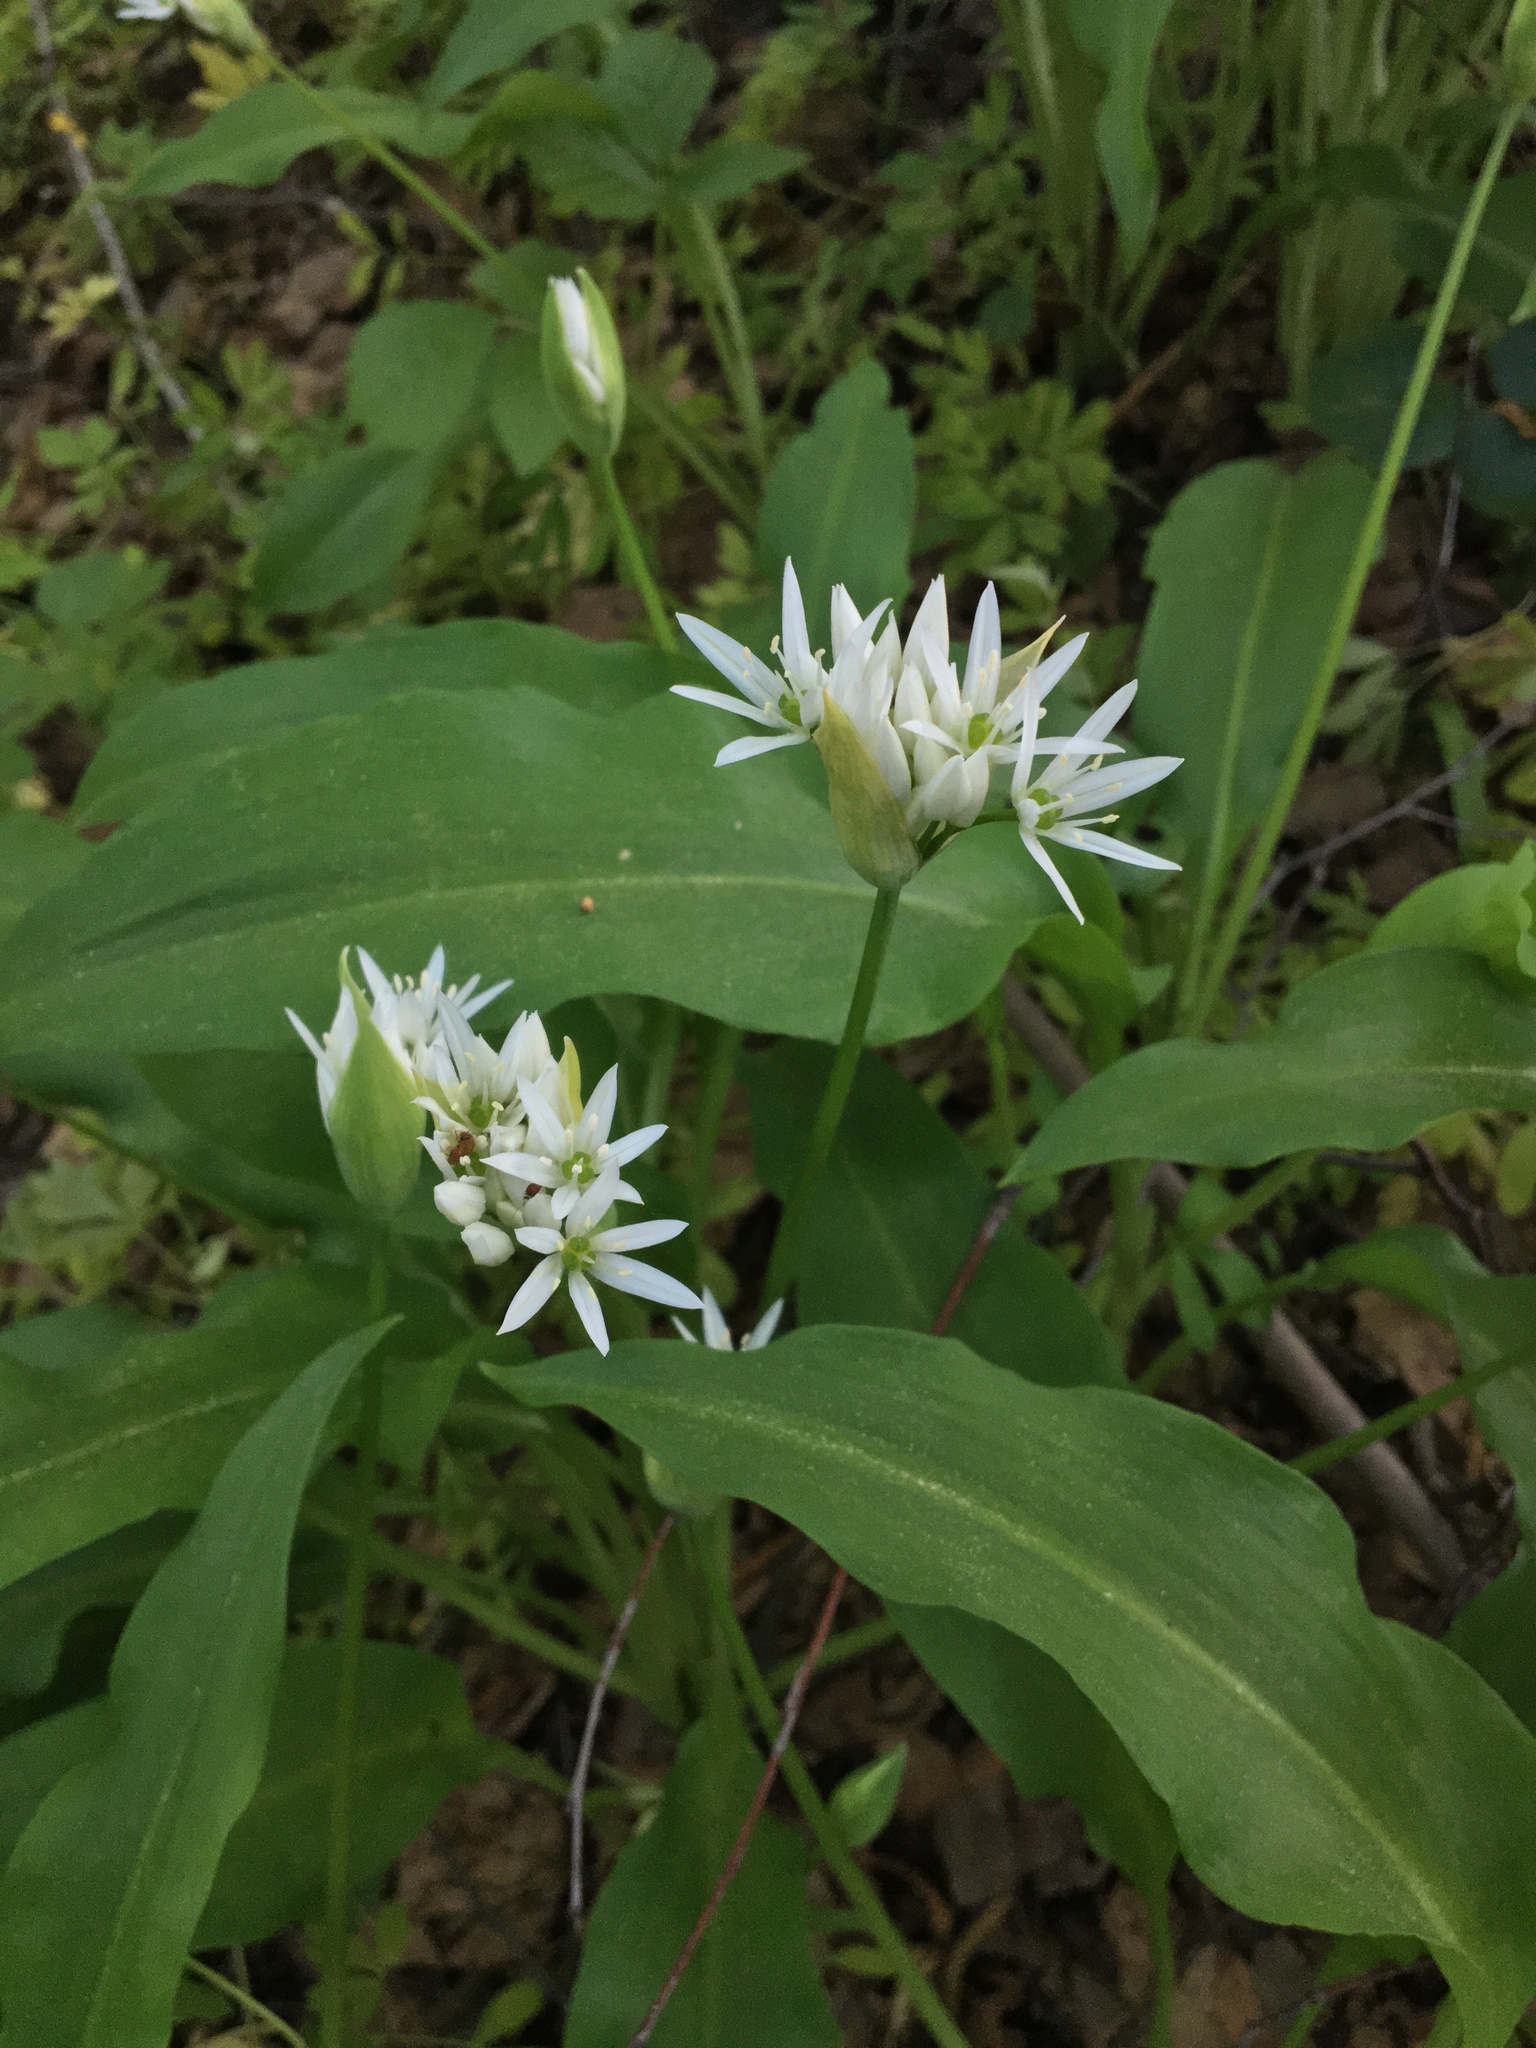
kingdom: Plantae
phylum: Tracheophyta
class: Liliopsida
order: Asparagales
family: Amaryllidaceae
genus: Allium
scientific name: Allium ursinum
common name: Ramsons
